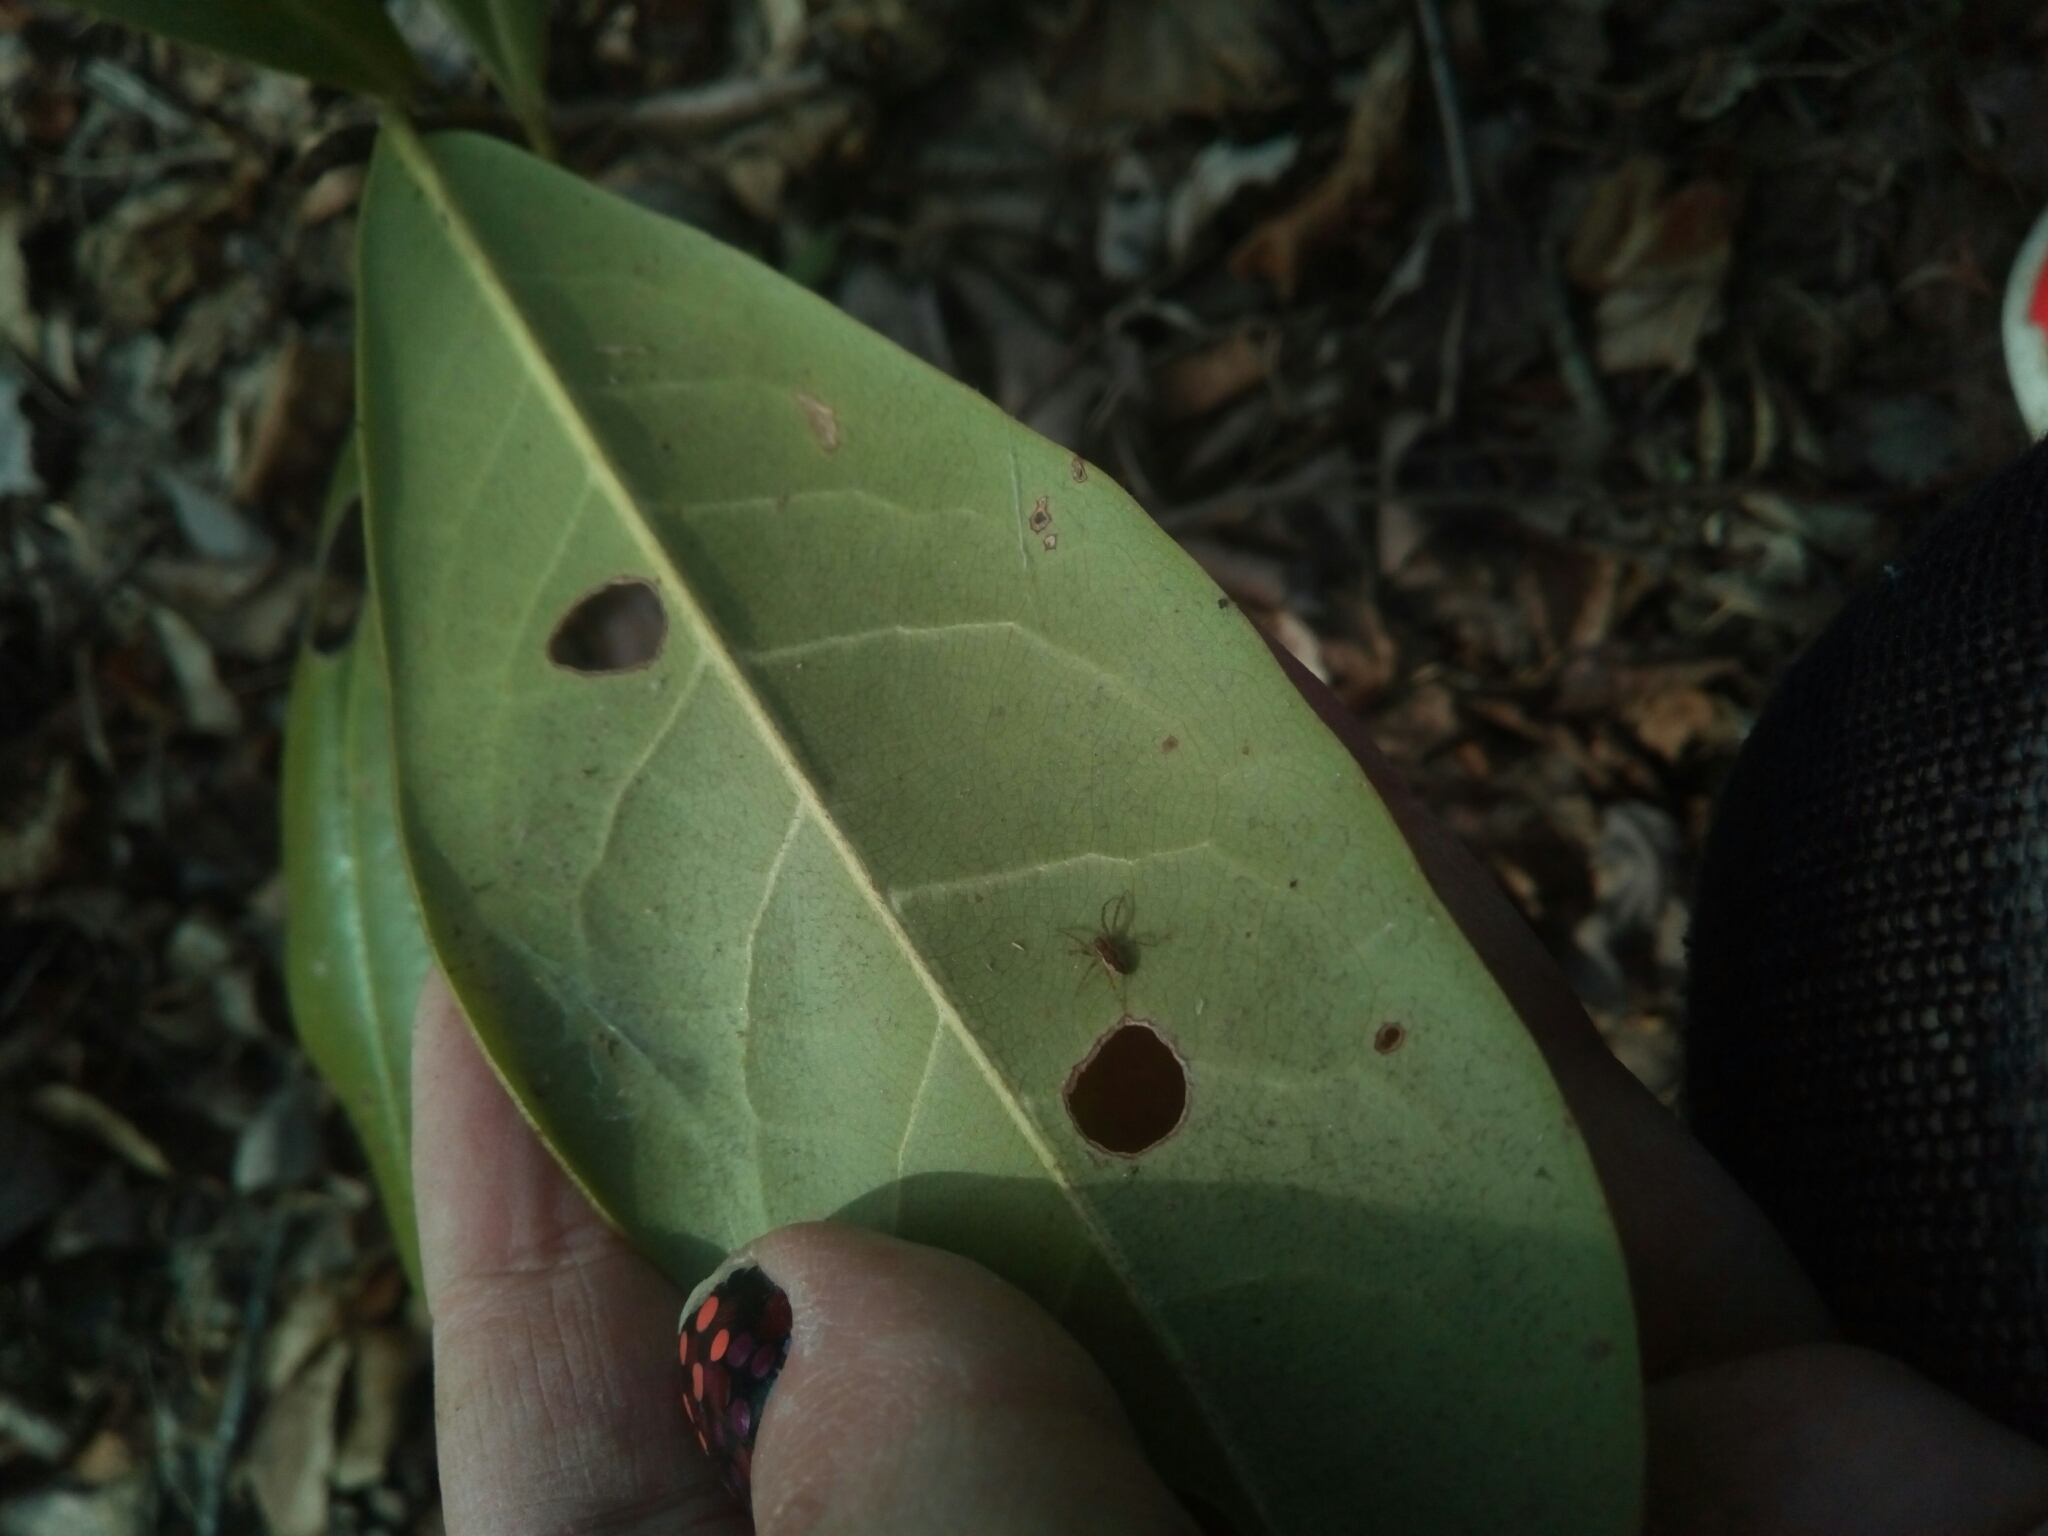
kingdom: Plantae
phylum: Tracheophyta
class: Magnoliopsida
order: Magnoliales
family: Magnoliaceae
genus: Magnolia
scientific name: Magnolia grandiflora
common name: Southern magnolia
